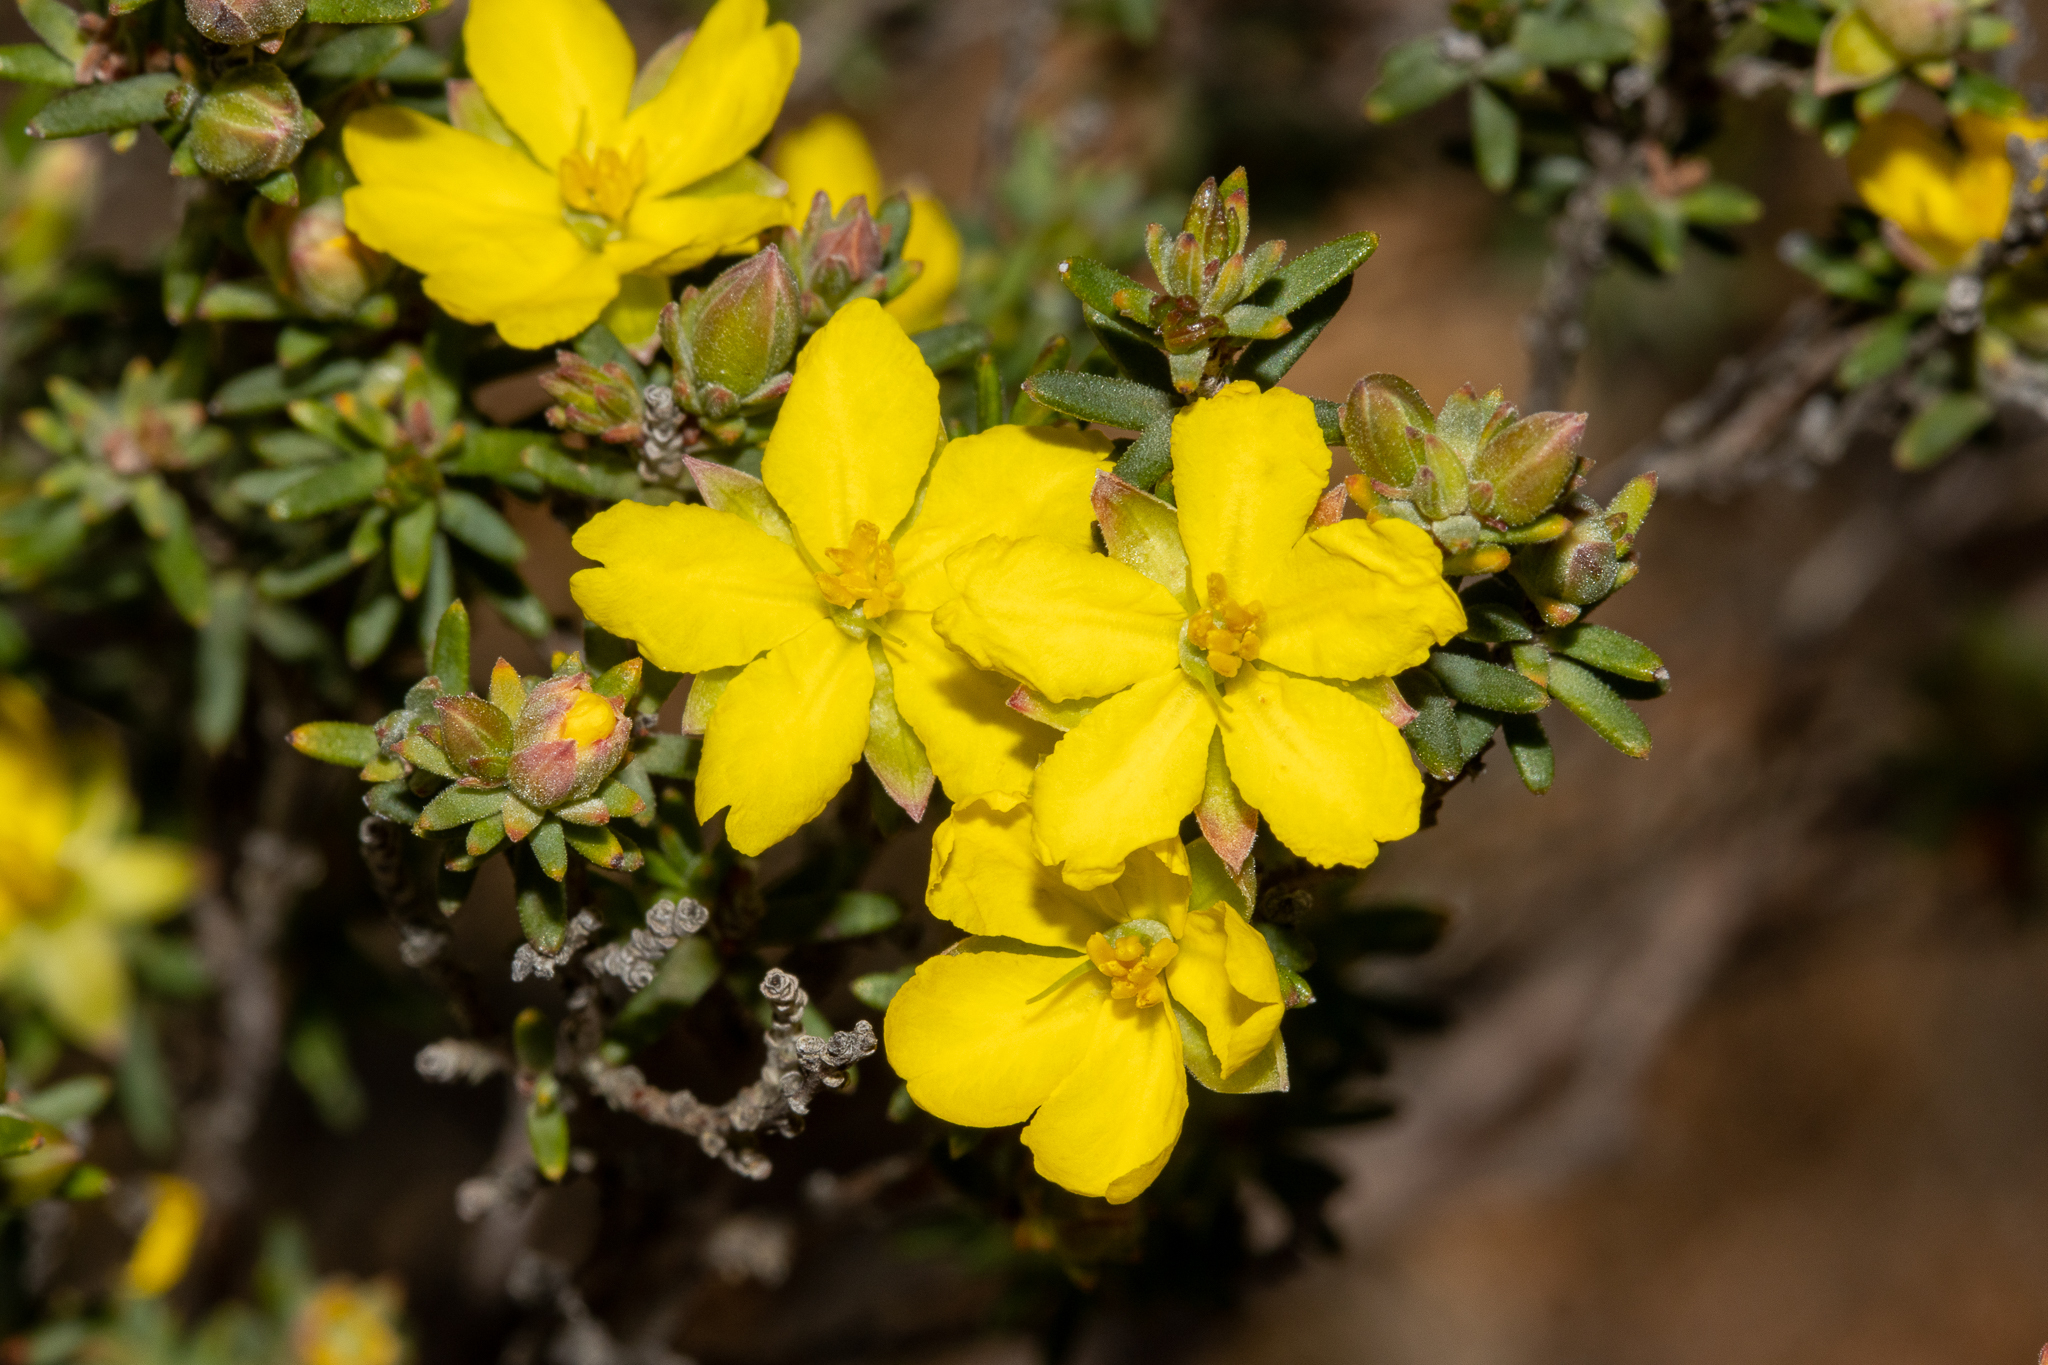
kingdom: Plantae
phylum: Tracheophyta
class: Magnoliopsida
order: Dilleniales
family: Dilleniaceae
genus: Hibbertia
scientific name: Hibbertia devitata
